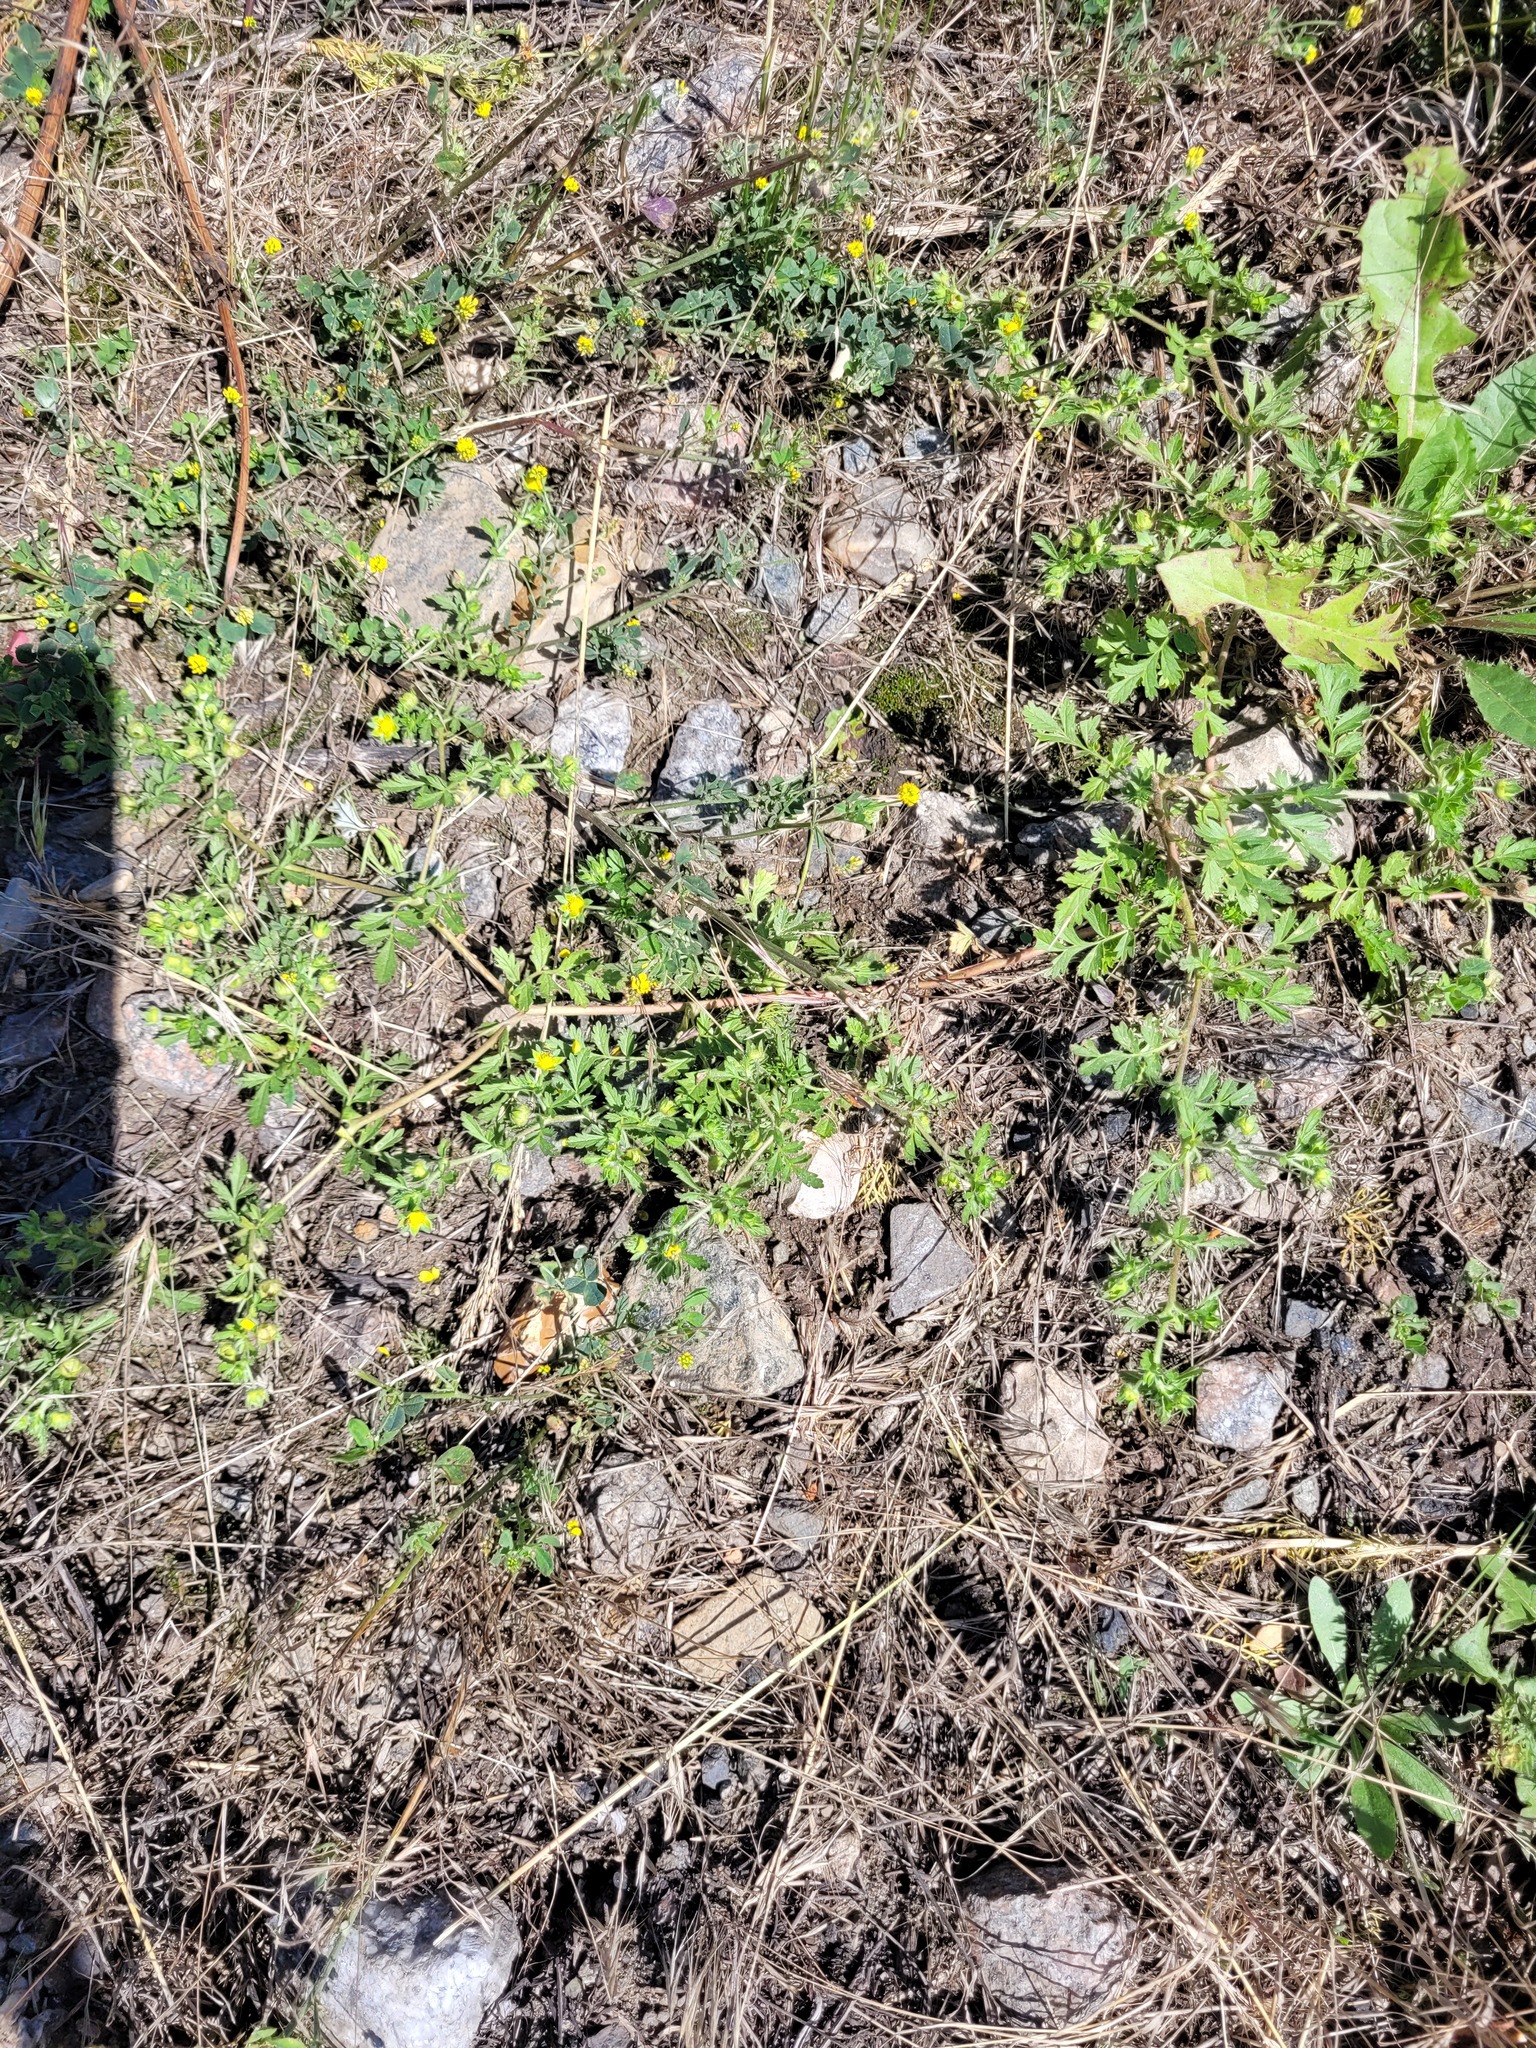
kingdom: Plantae
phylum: Tracheophyta
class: Magnoliopsida
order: Rosales
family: Rosaceae
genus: Potentilla
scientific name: Potentilla supina
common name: Prostrate cinquefoil
